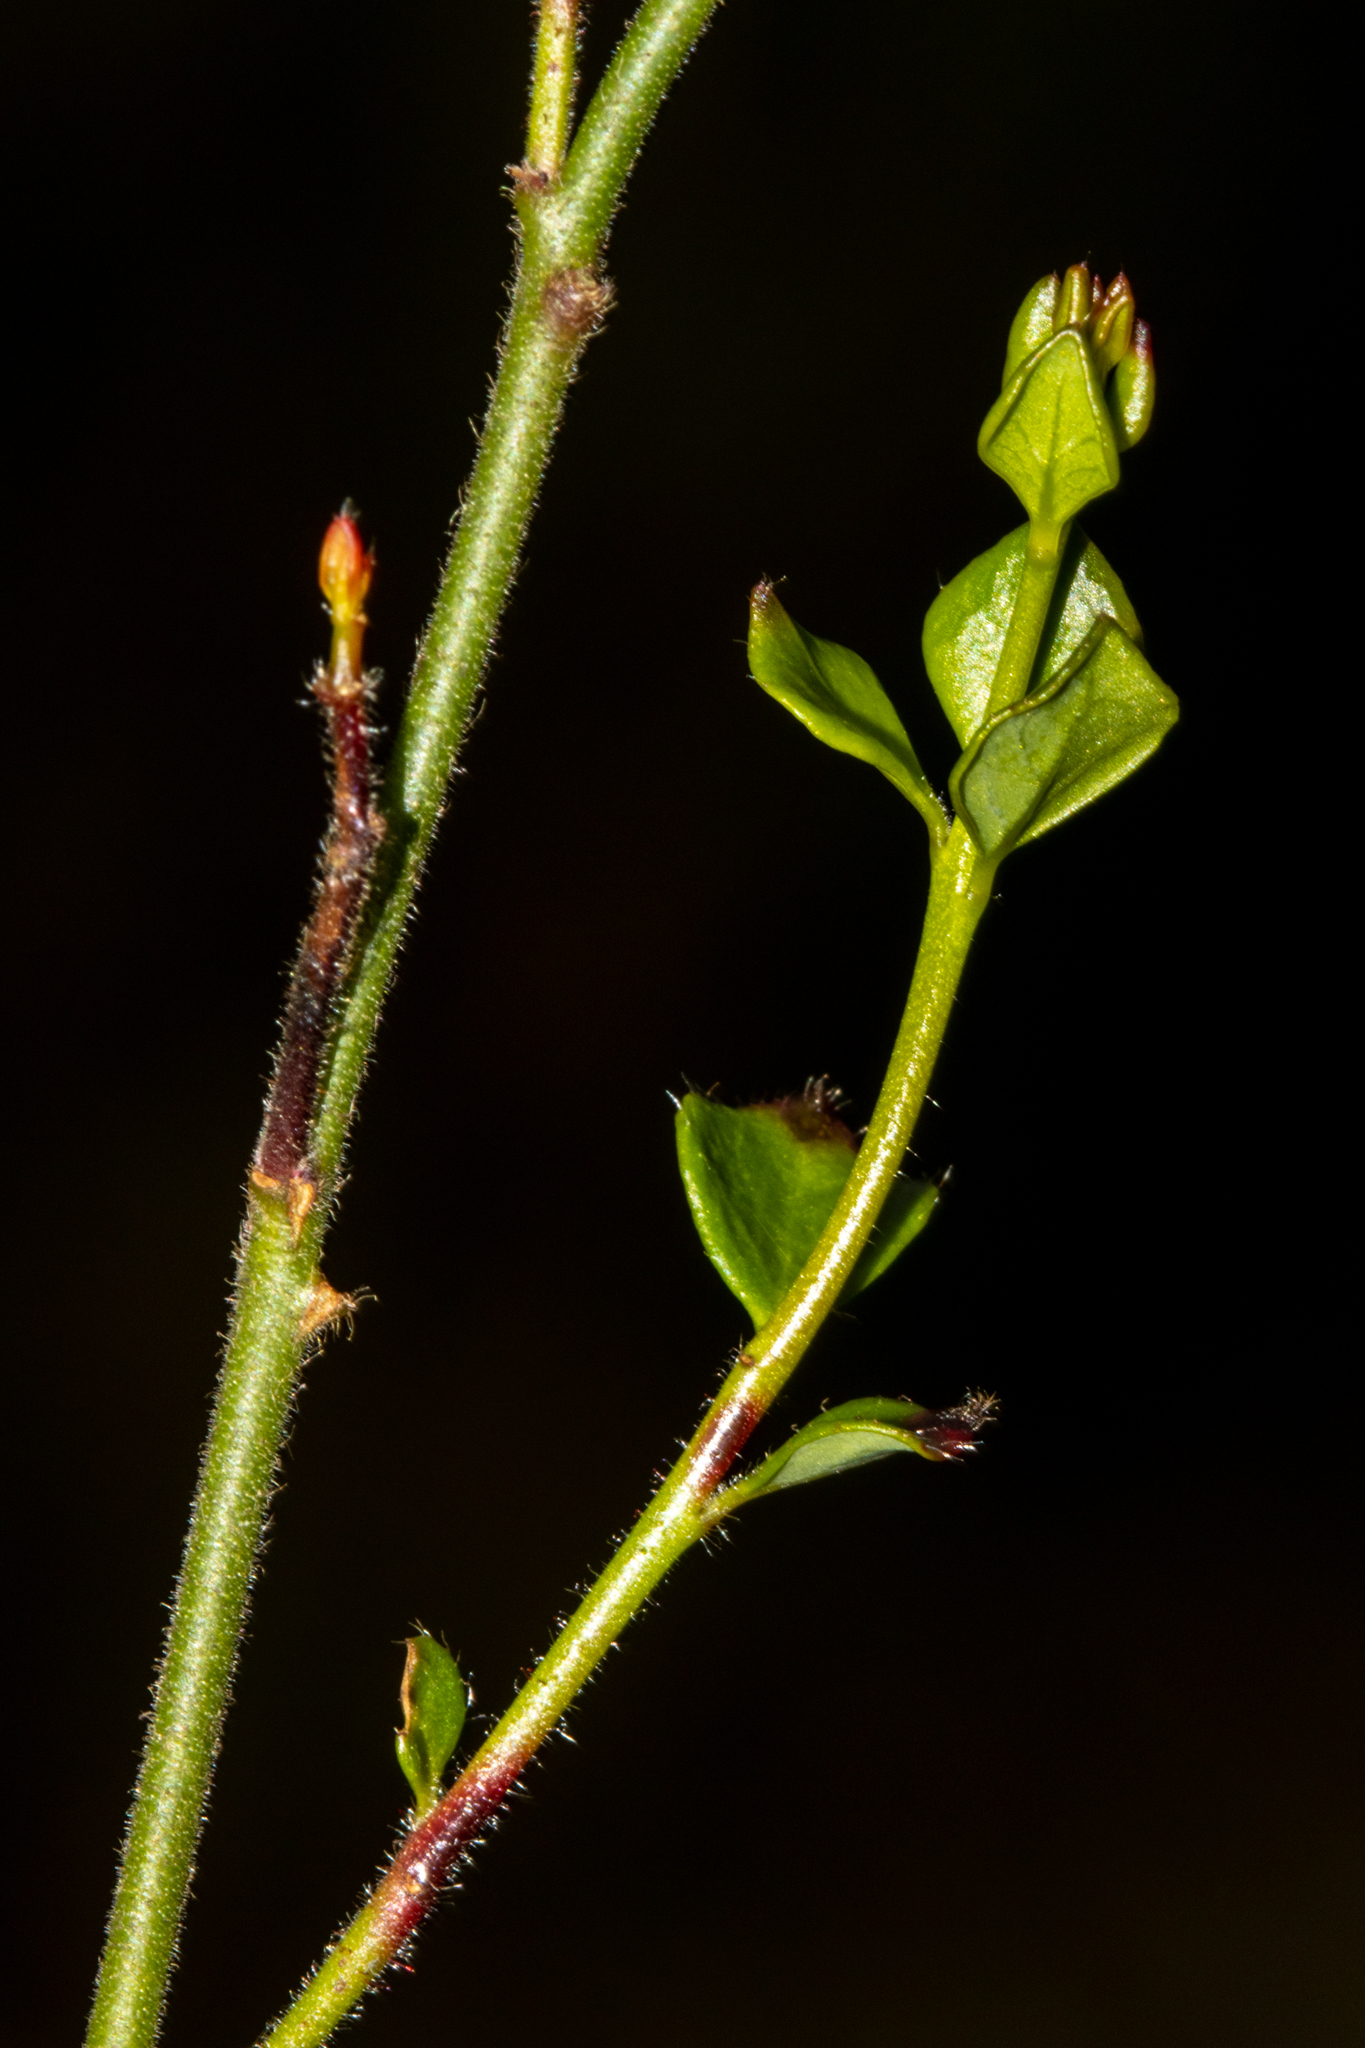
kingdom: Plantae
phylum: Tracheophyta
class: Magnoliopsida
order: Oxalidales
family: Elaeocarpaceae
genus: Tetratheca
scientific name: Tetratheca ciliata
